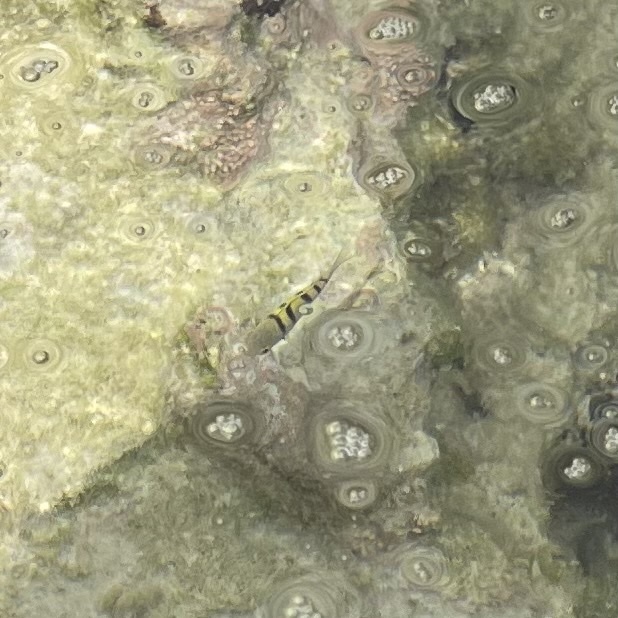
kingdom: Animalia
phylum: Chordata
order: Perciformes
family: Pomacentridae
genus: Abudefduf
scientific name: Abudefduf saxatilis
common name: Sergeant major
